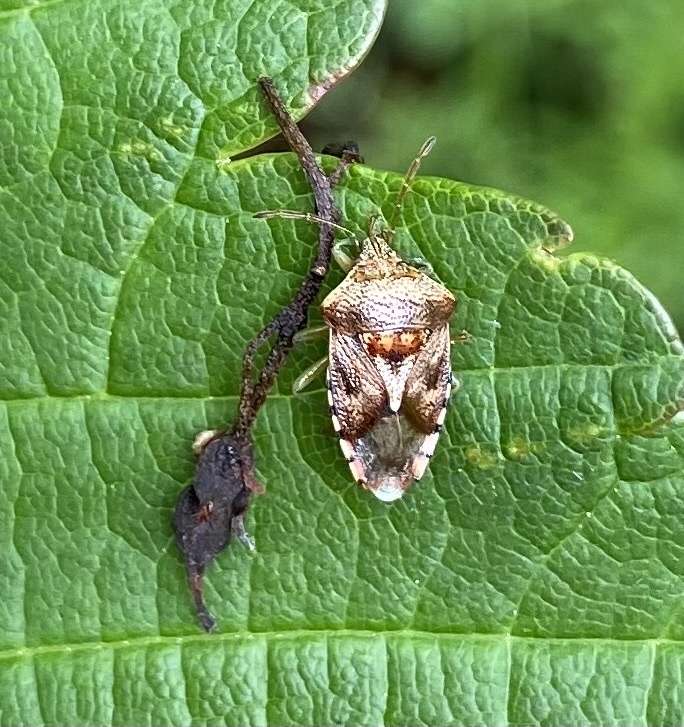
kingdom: Animalia
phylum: Arthropoda
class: Insecta
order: Hemiptera
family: Acanthosomatidae
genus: Elasmucha
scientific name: Elasmucha grisea
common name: Parent bug
